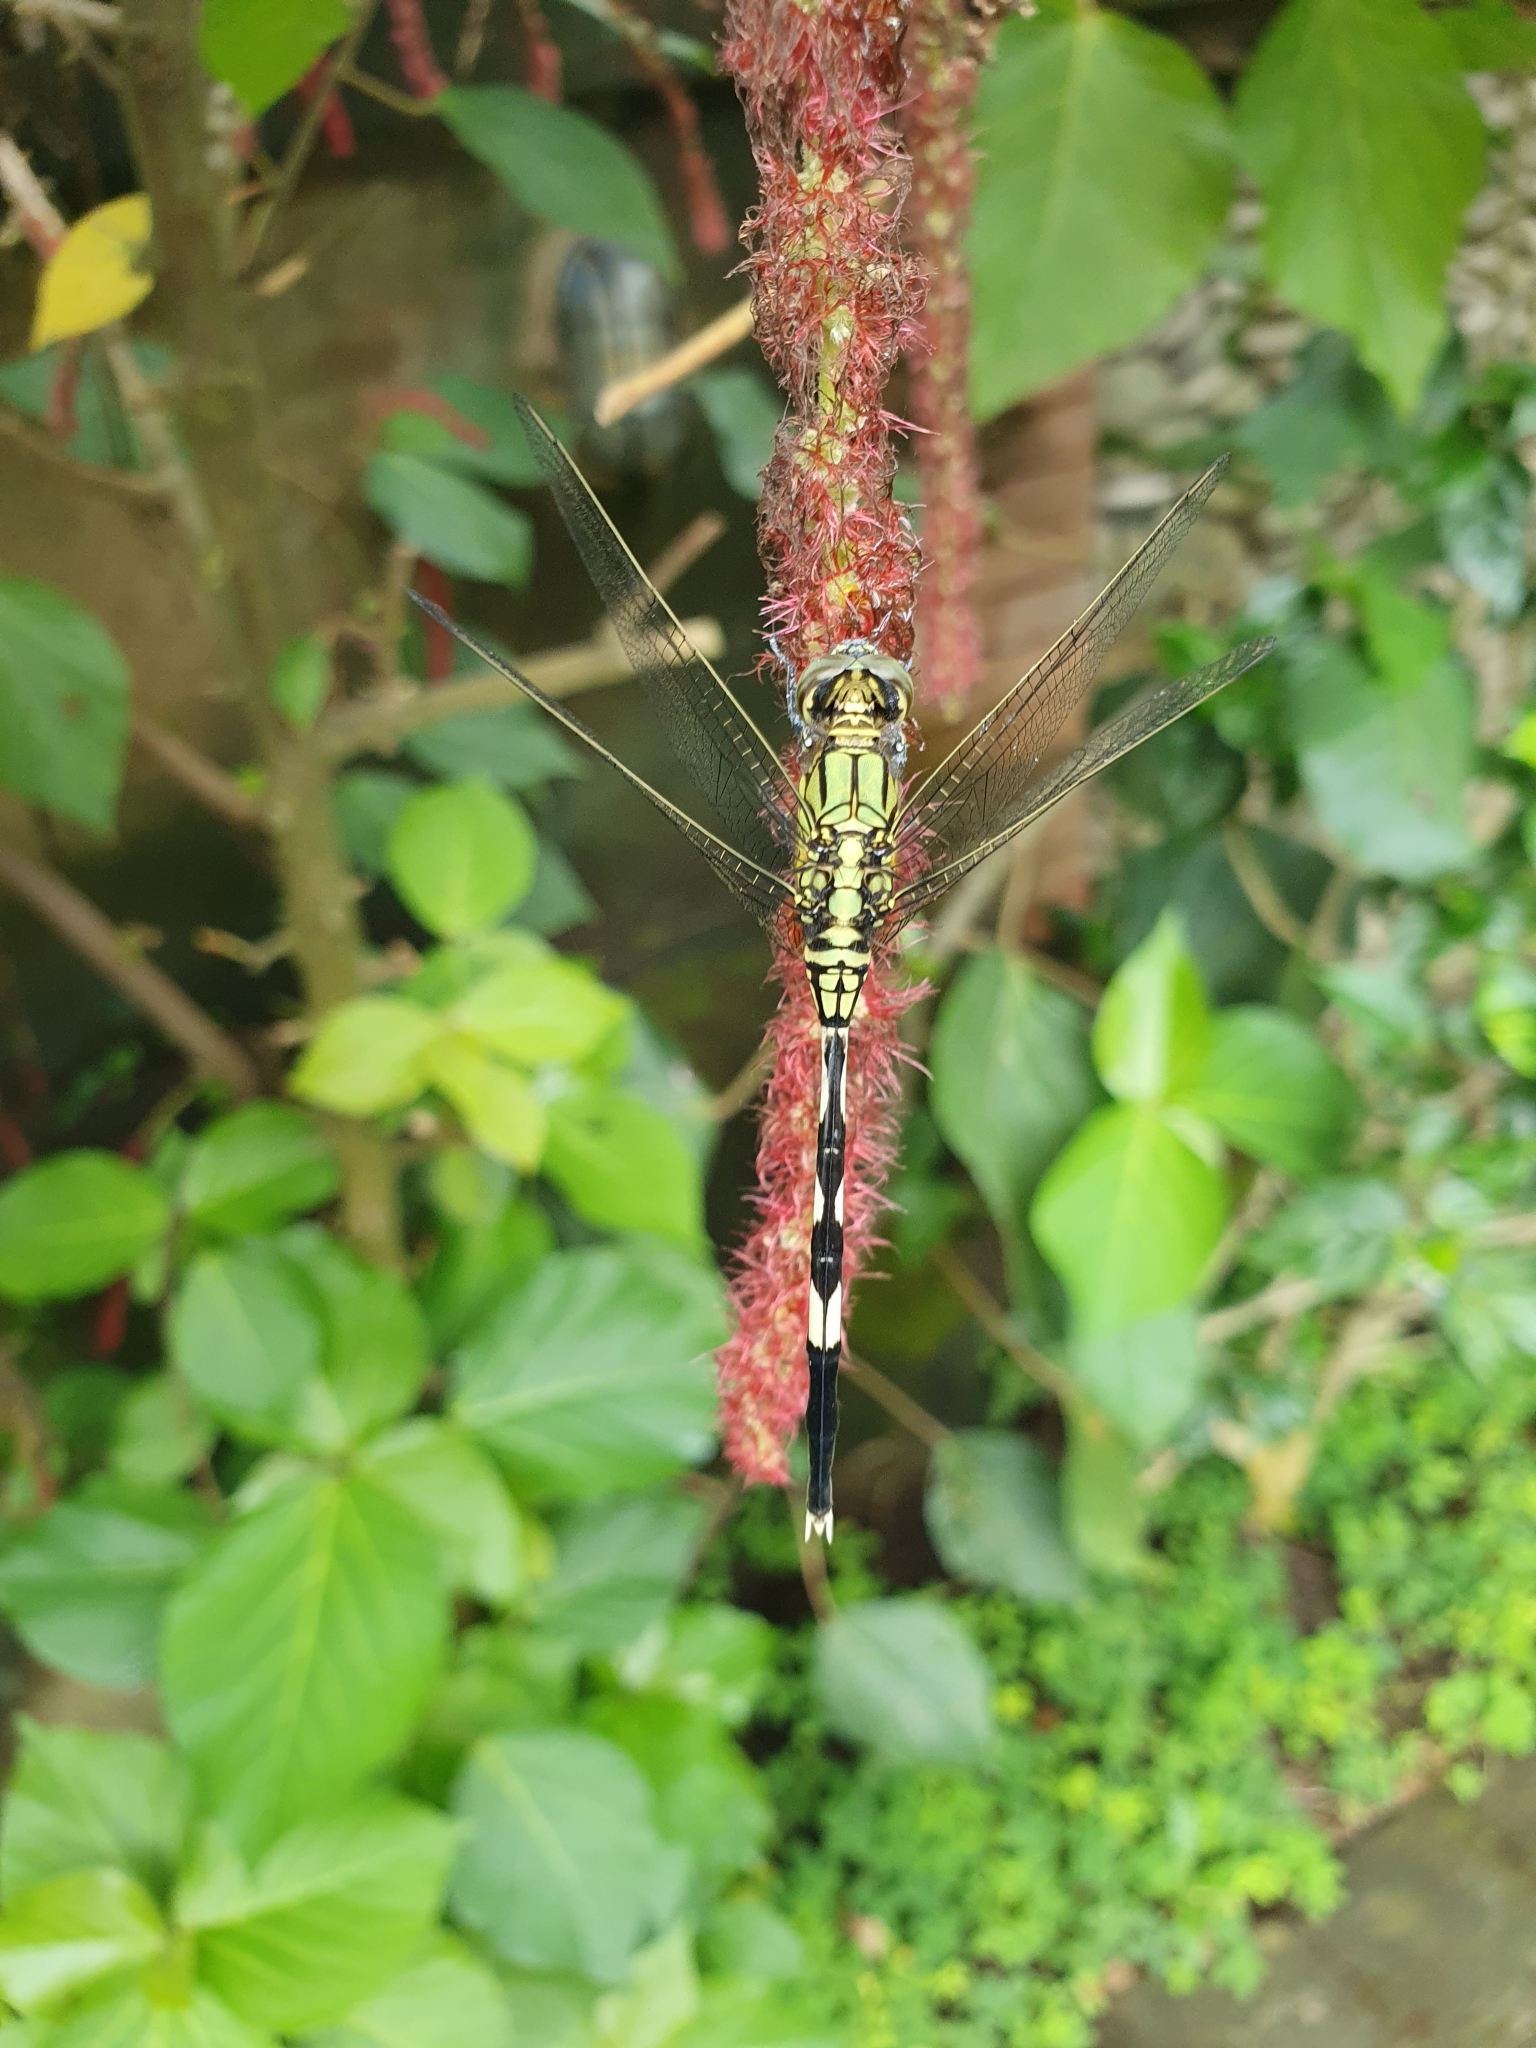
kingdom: Animalia
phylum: Arthropoda
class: Insecta
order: Odonata
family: Libellulidae
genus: Orthetrum
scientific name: Orthetrum sabina
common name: Slender skimmer
